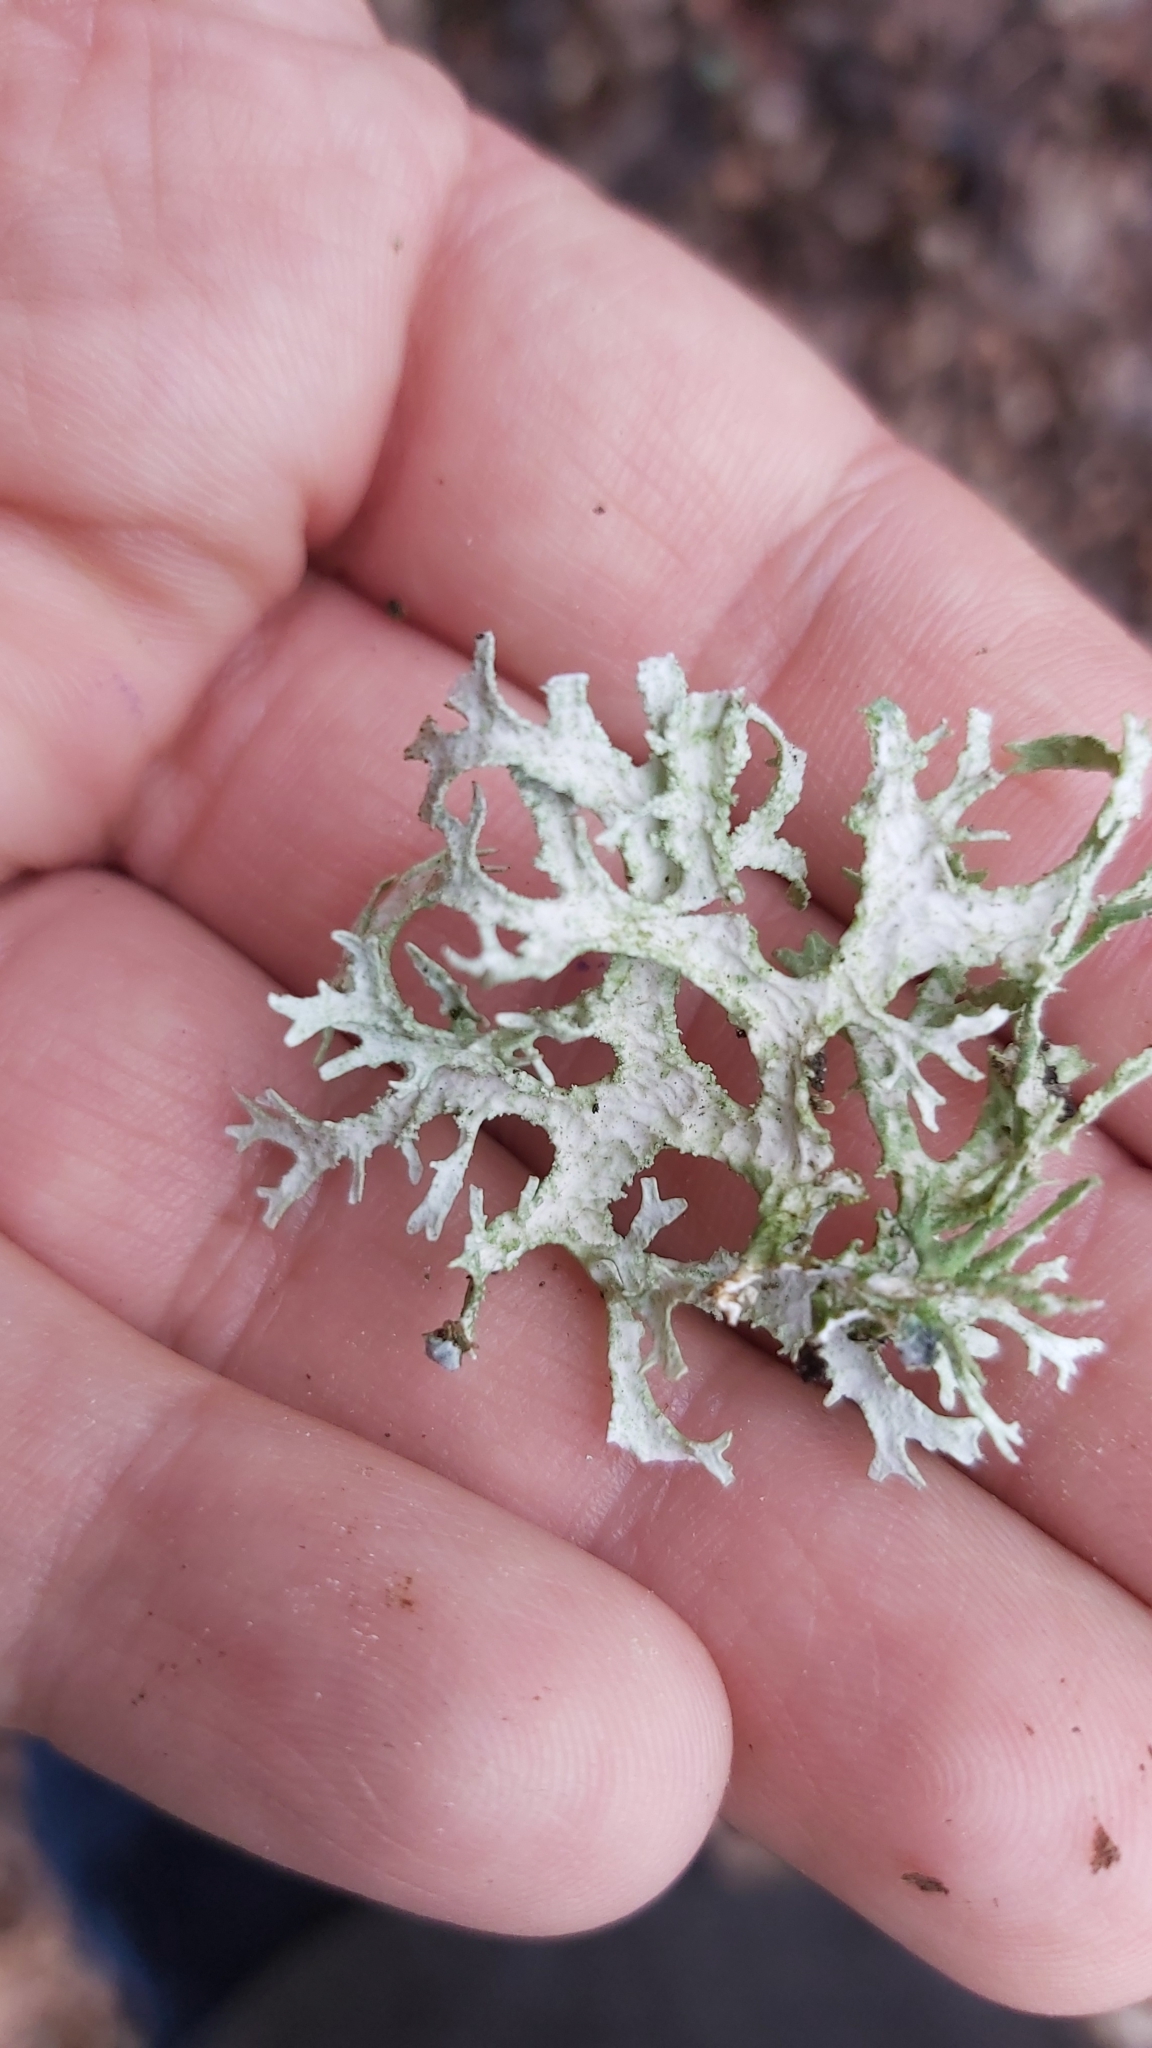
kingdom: Fungi
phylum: Ascomycota
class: Lecanoromycetes
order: Lecanorales
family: Parmeliaceae
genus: Evernia
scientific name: Evernia prunastri
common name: Oak moss
